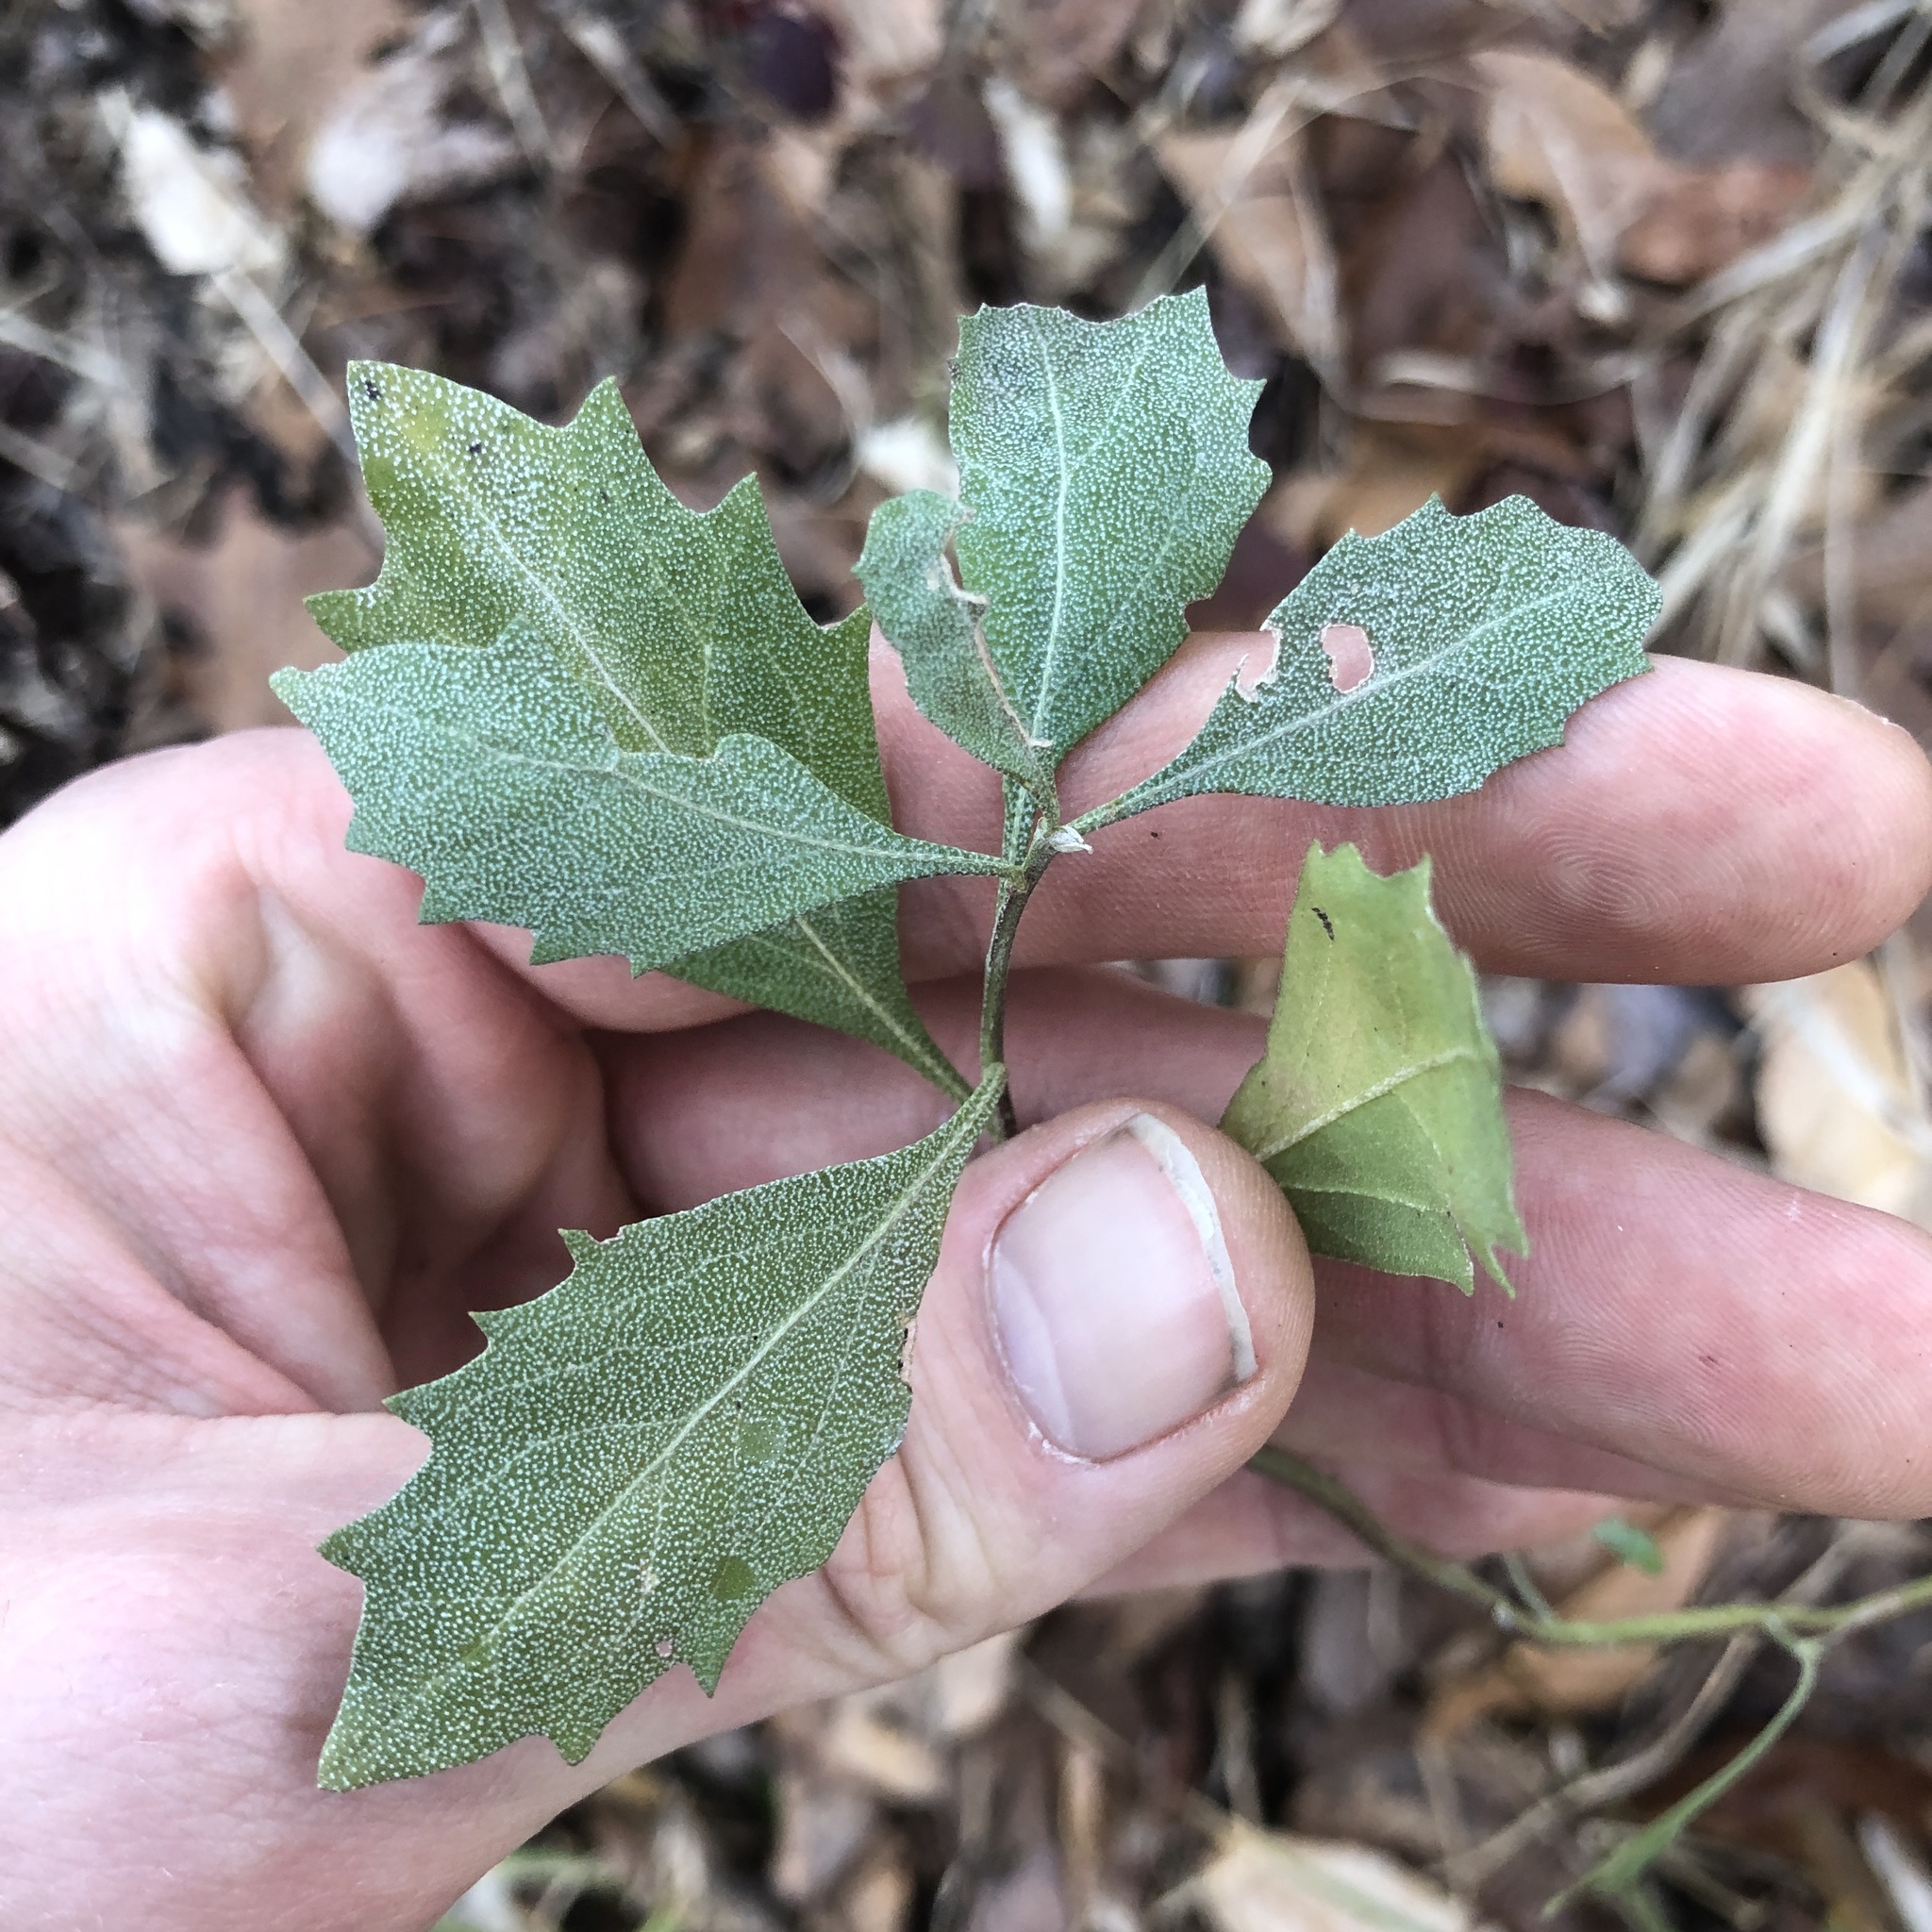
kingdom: Plantae
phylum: Tracheophyta
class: Magnoliopsida
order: Asterales
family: Asteraceae
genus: Baccharis
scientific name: Baccharis halimifolia
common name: Eastern baccharis
